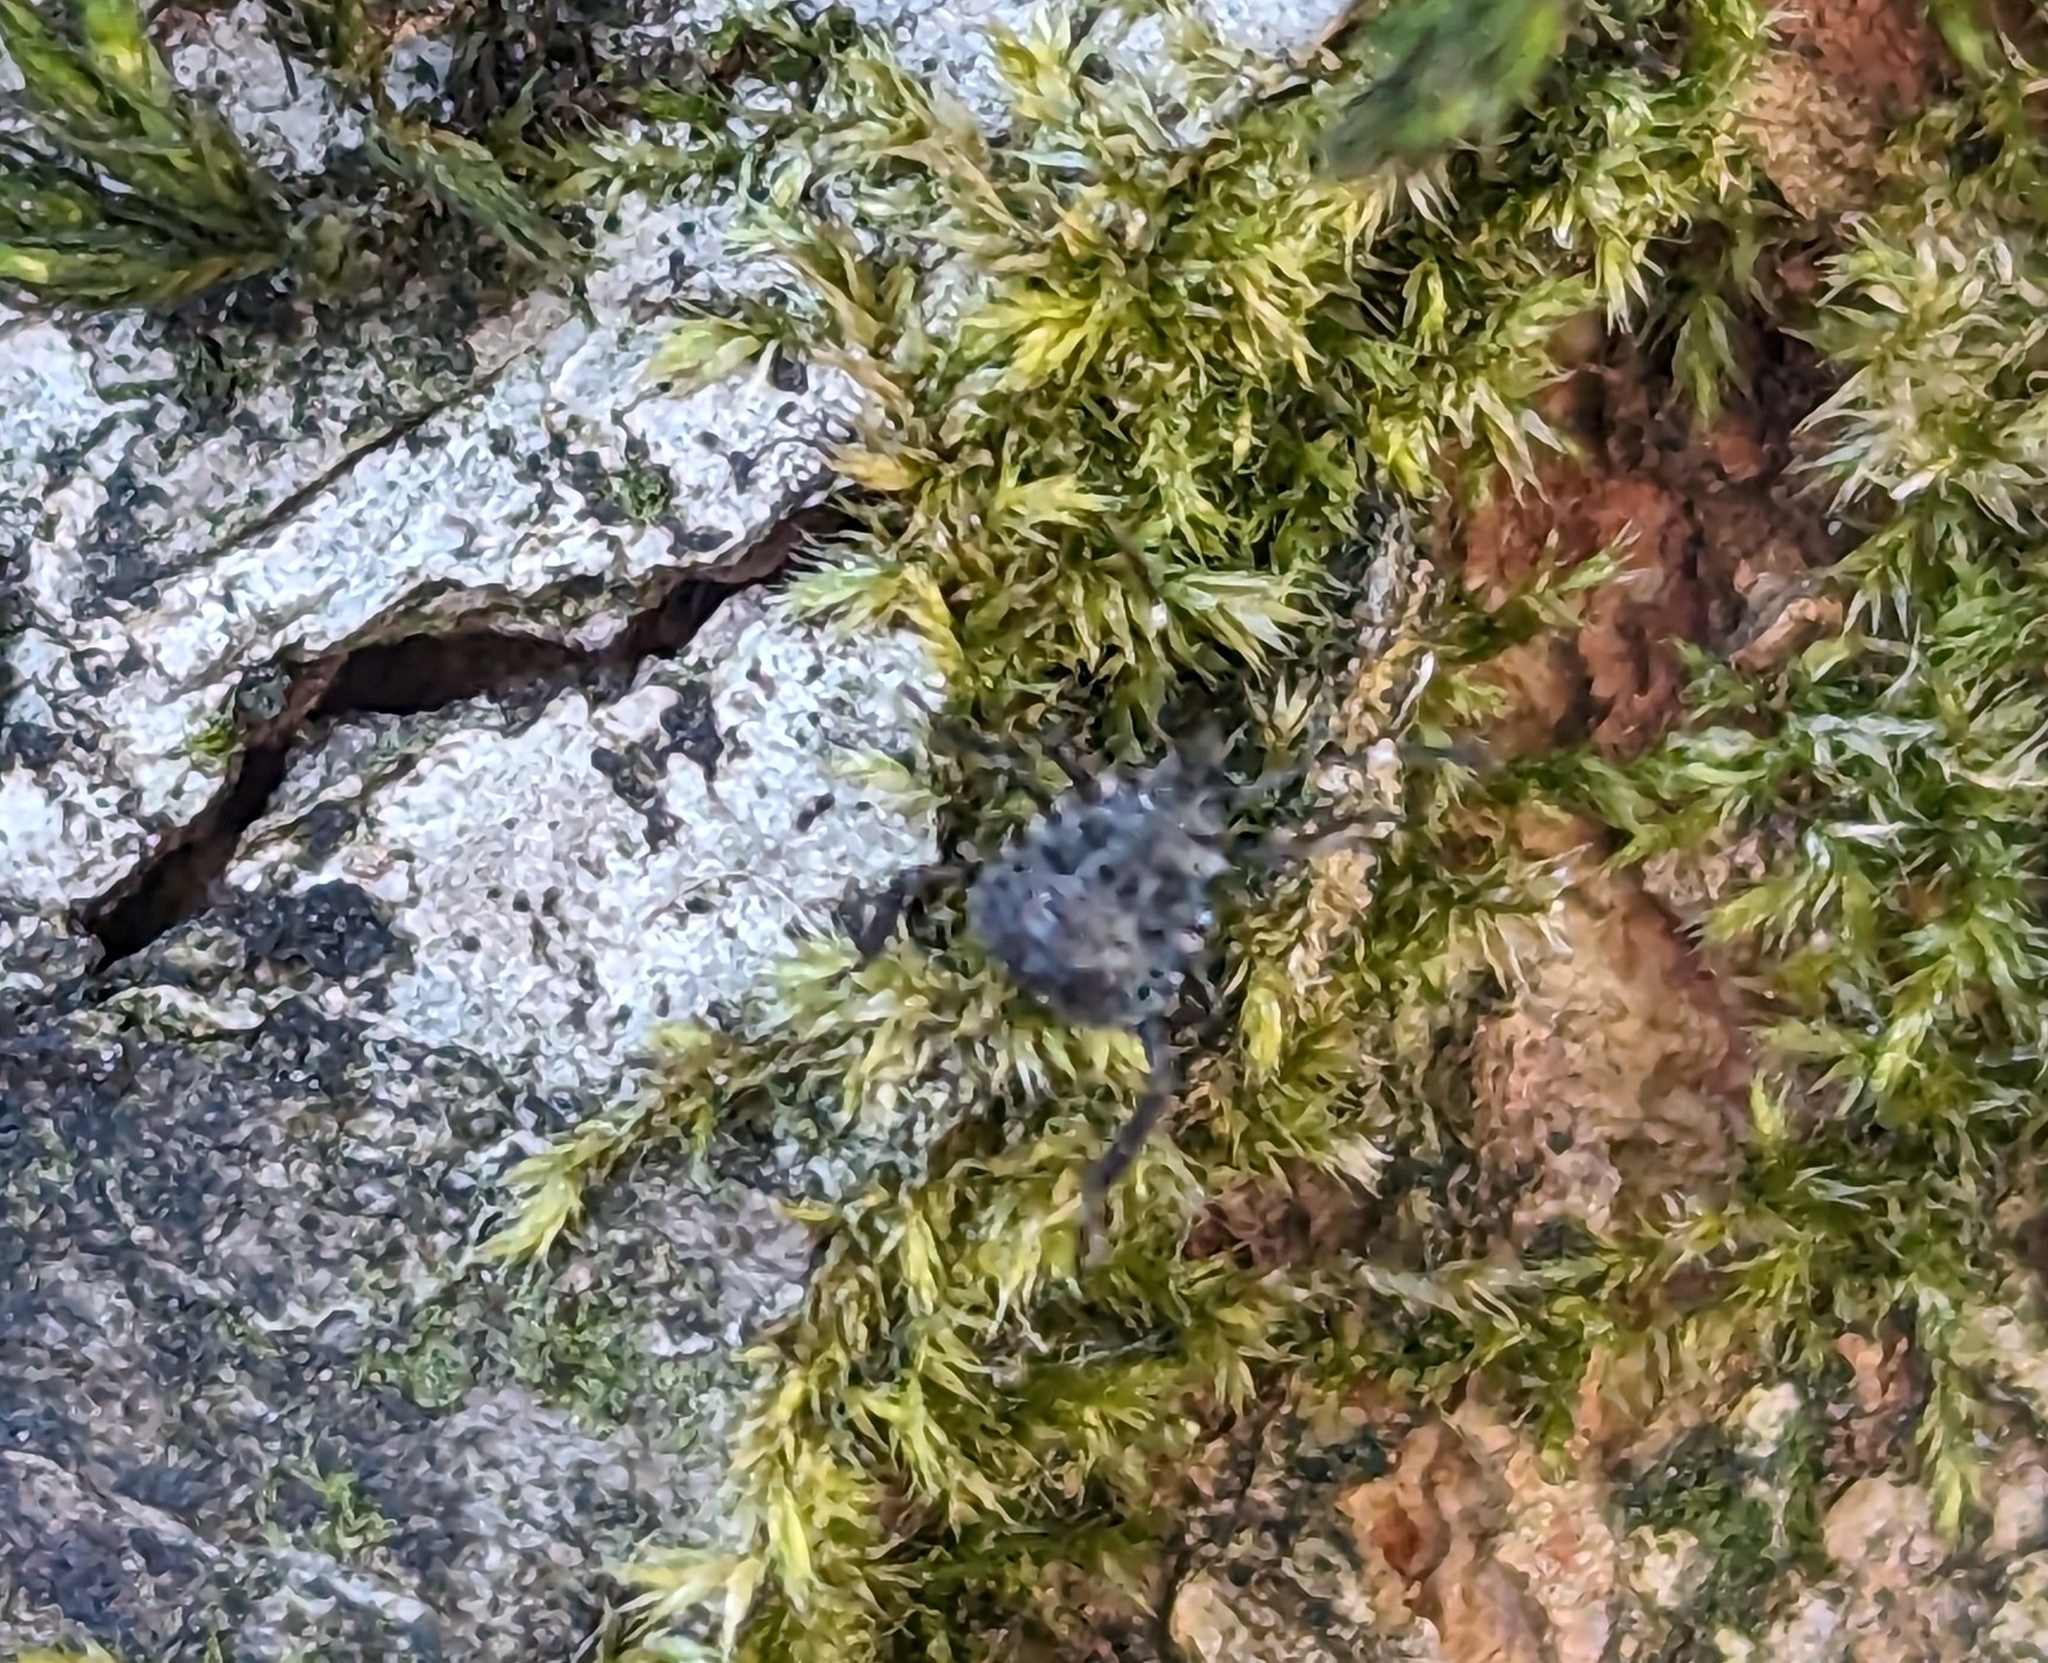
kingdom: Animalia
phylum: Arthropoda
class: Insecta
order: Hemiptera
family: Pentatomidae
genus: Halyomorpha
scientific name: Halyomorpha halys
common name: Brown marmorated stink bug
